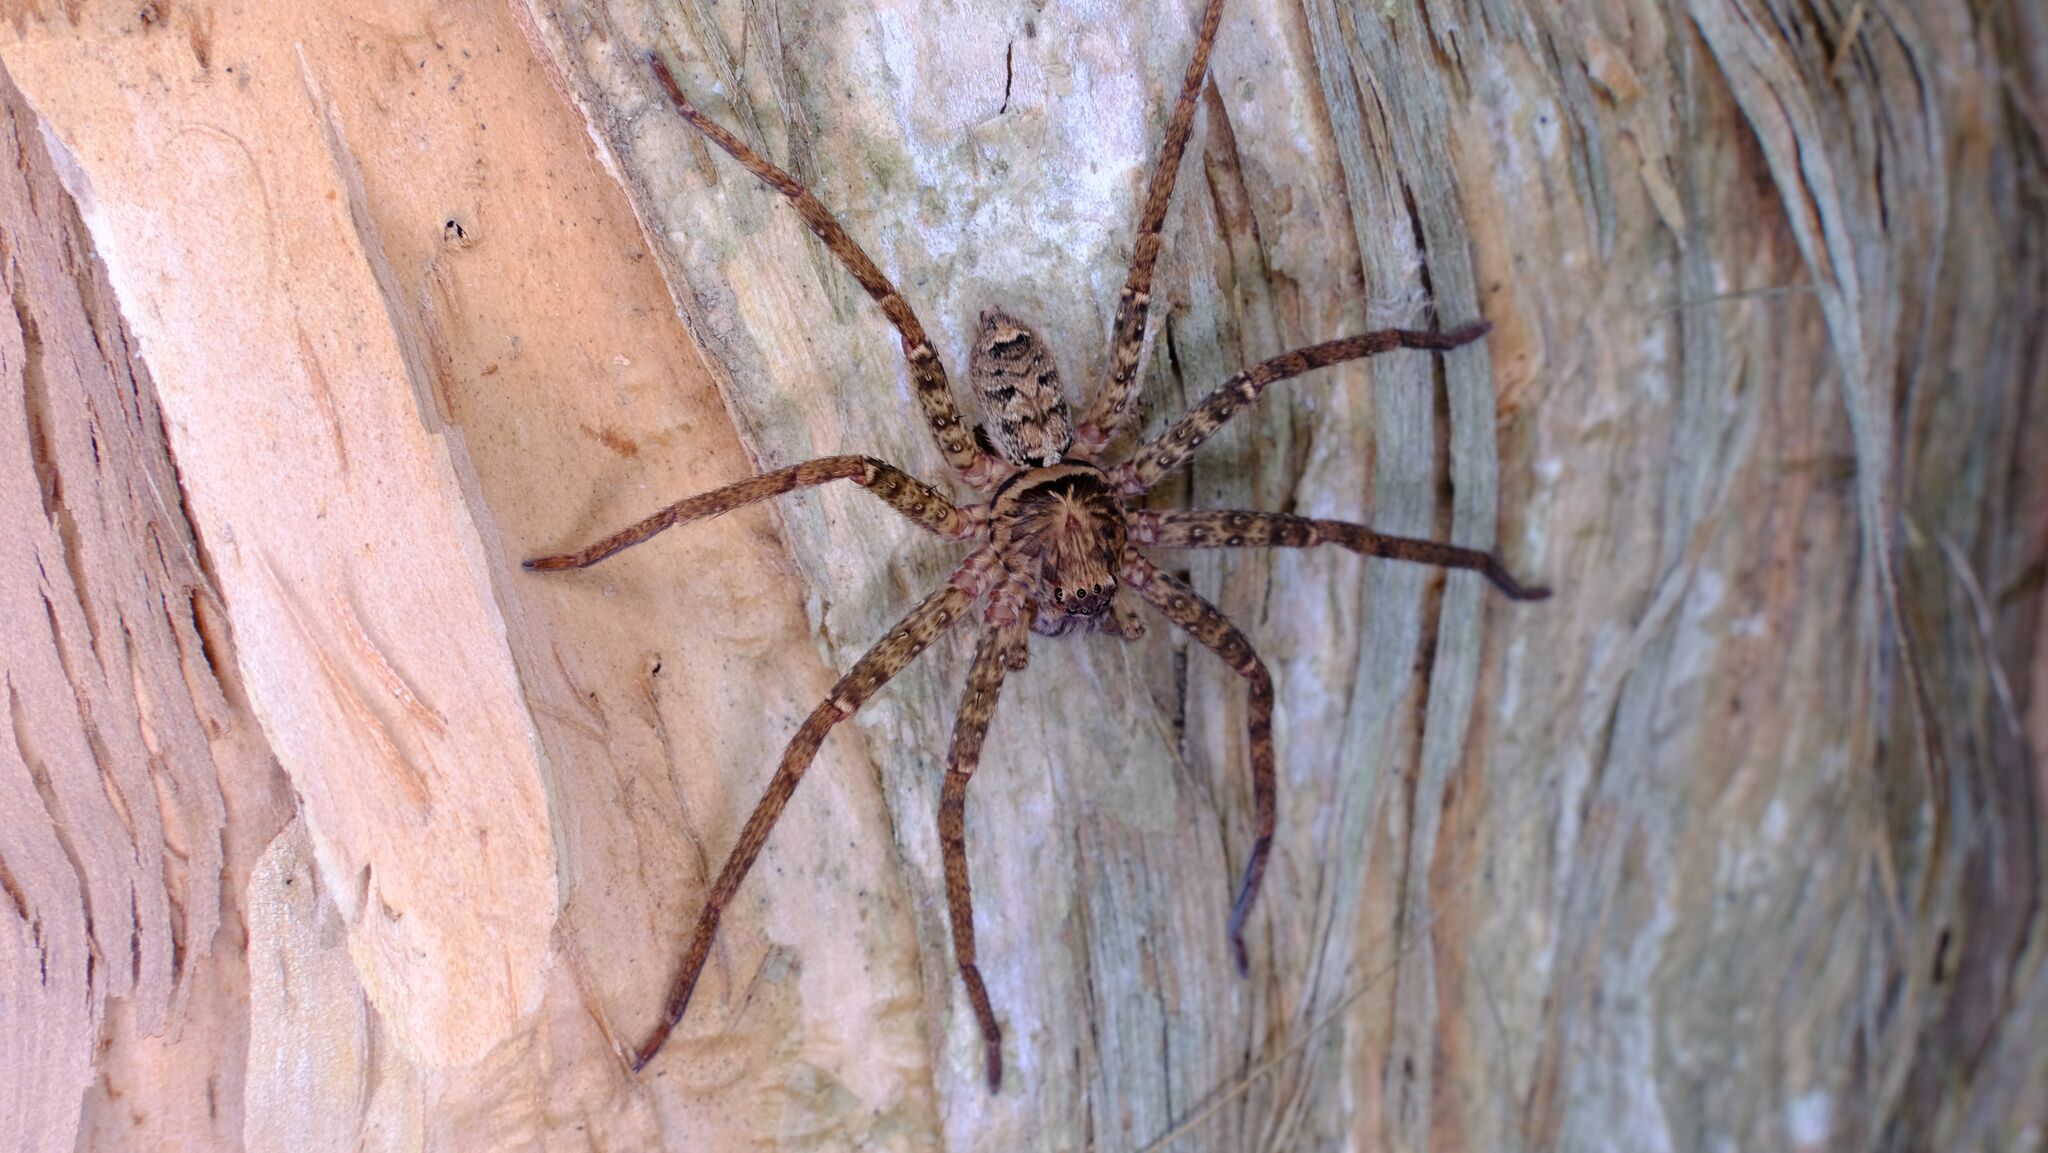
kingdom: Animalia
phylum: Arthropoda
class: Arachnida
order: Araneae
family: Sparassidae
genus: Heteropoda
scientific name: Heteropoda jugulans
